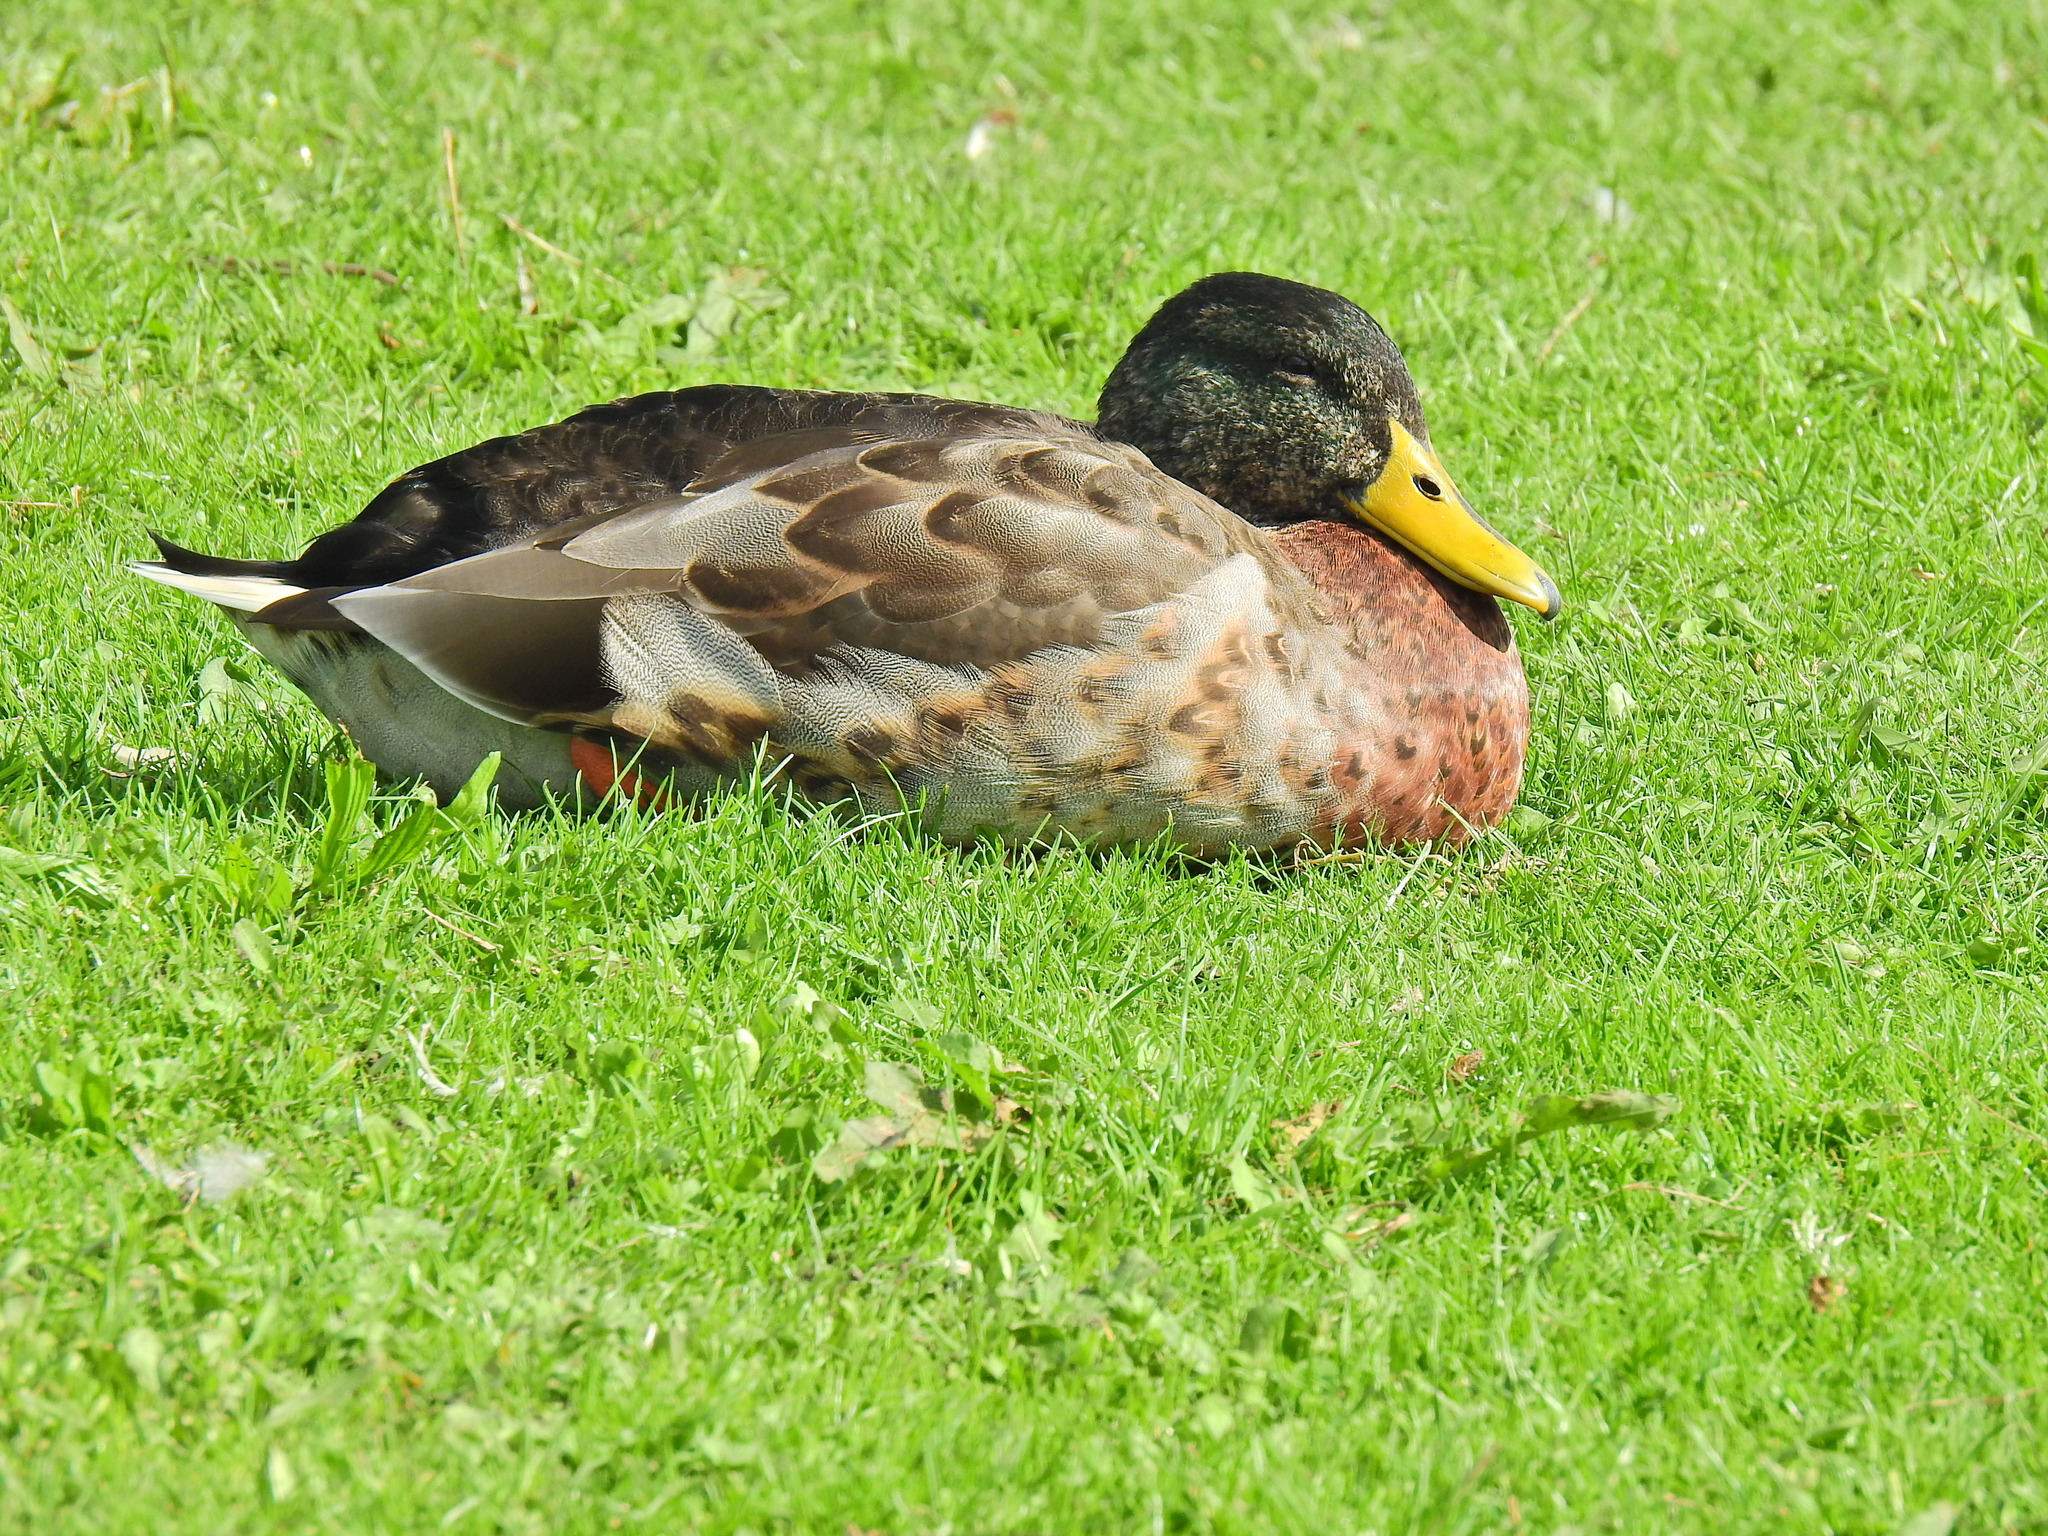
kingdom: Animalia
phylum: Chordata
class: Aves
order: Anseriformes
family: Anatidae
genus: Anas
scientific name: Anas platyrhynchos
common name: Mallard
